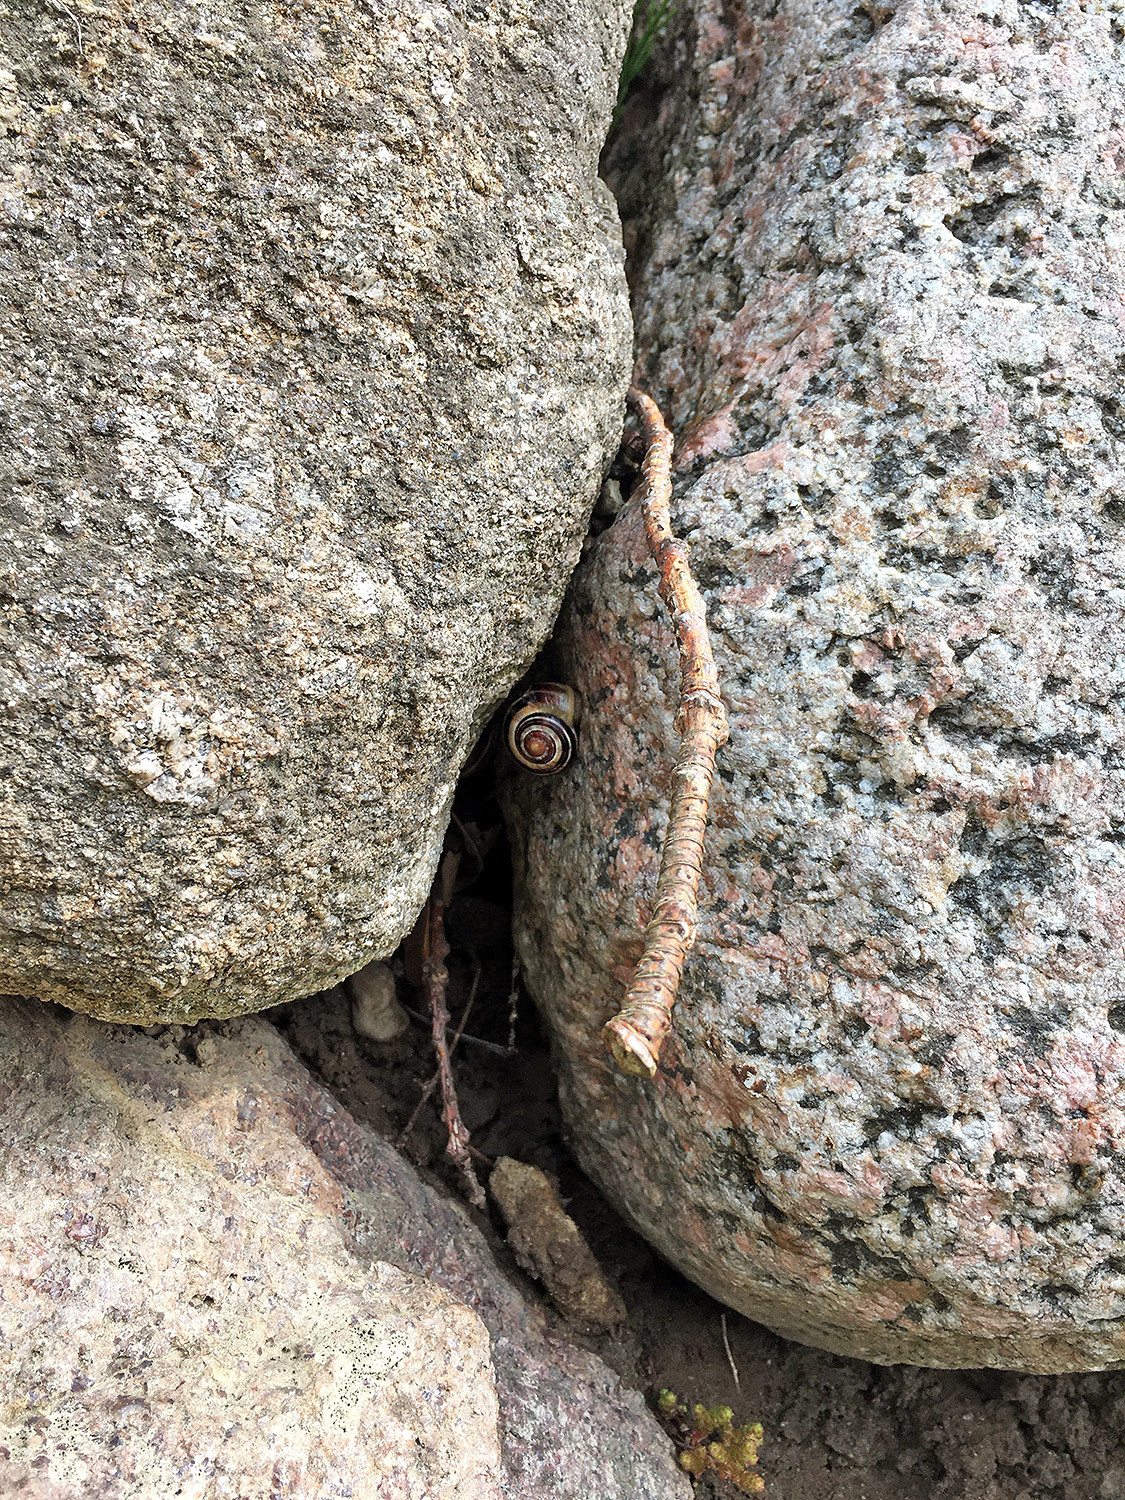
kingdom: Animalia
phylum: Mollusca
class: Gastropoda
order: Stylommatophora
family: Helicidae
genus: Cepaea
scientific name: Cepaea nemoralis
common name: Grovesnail
